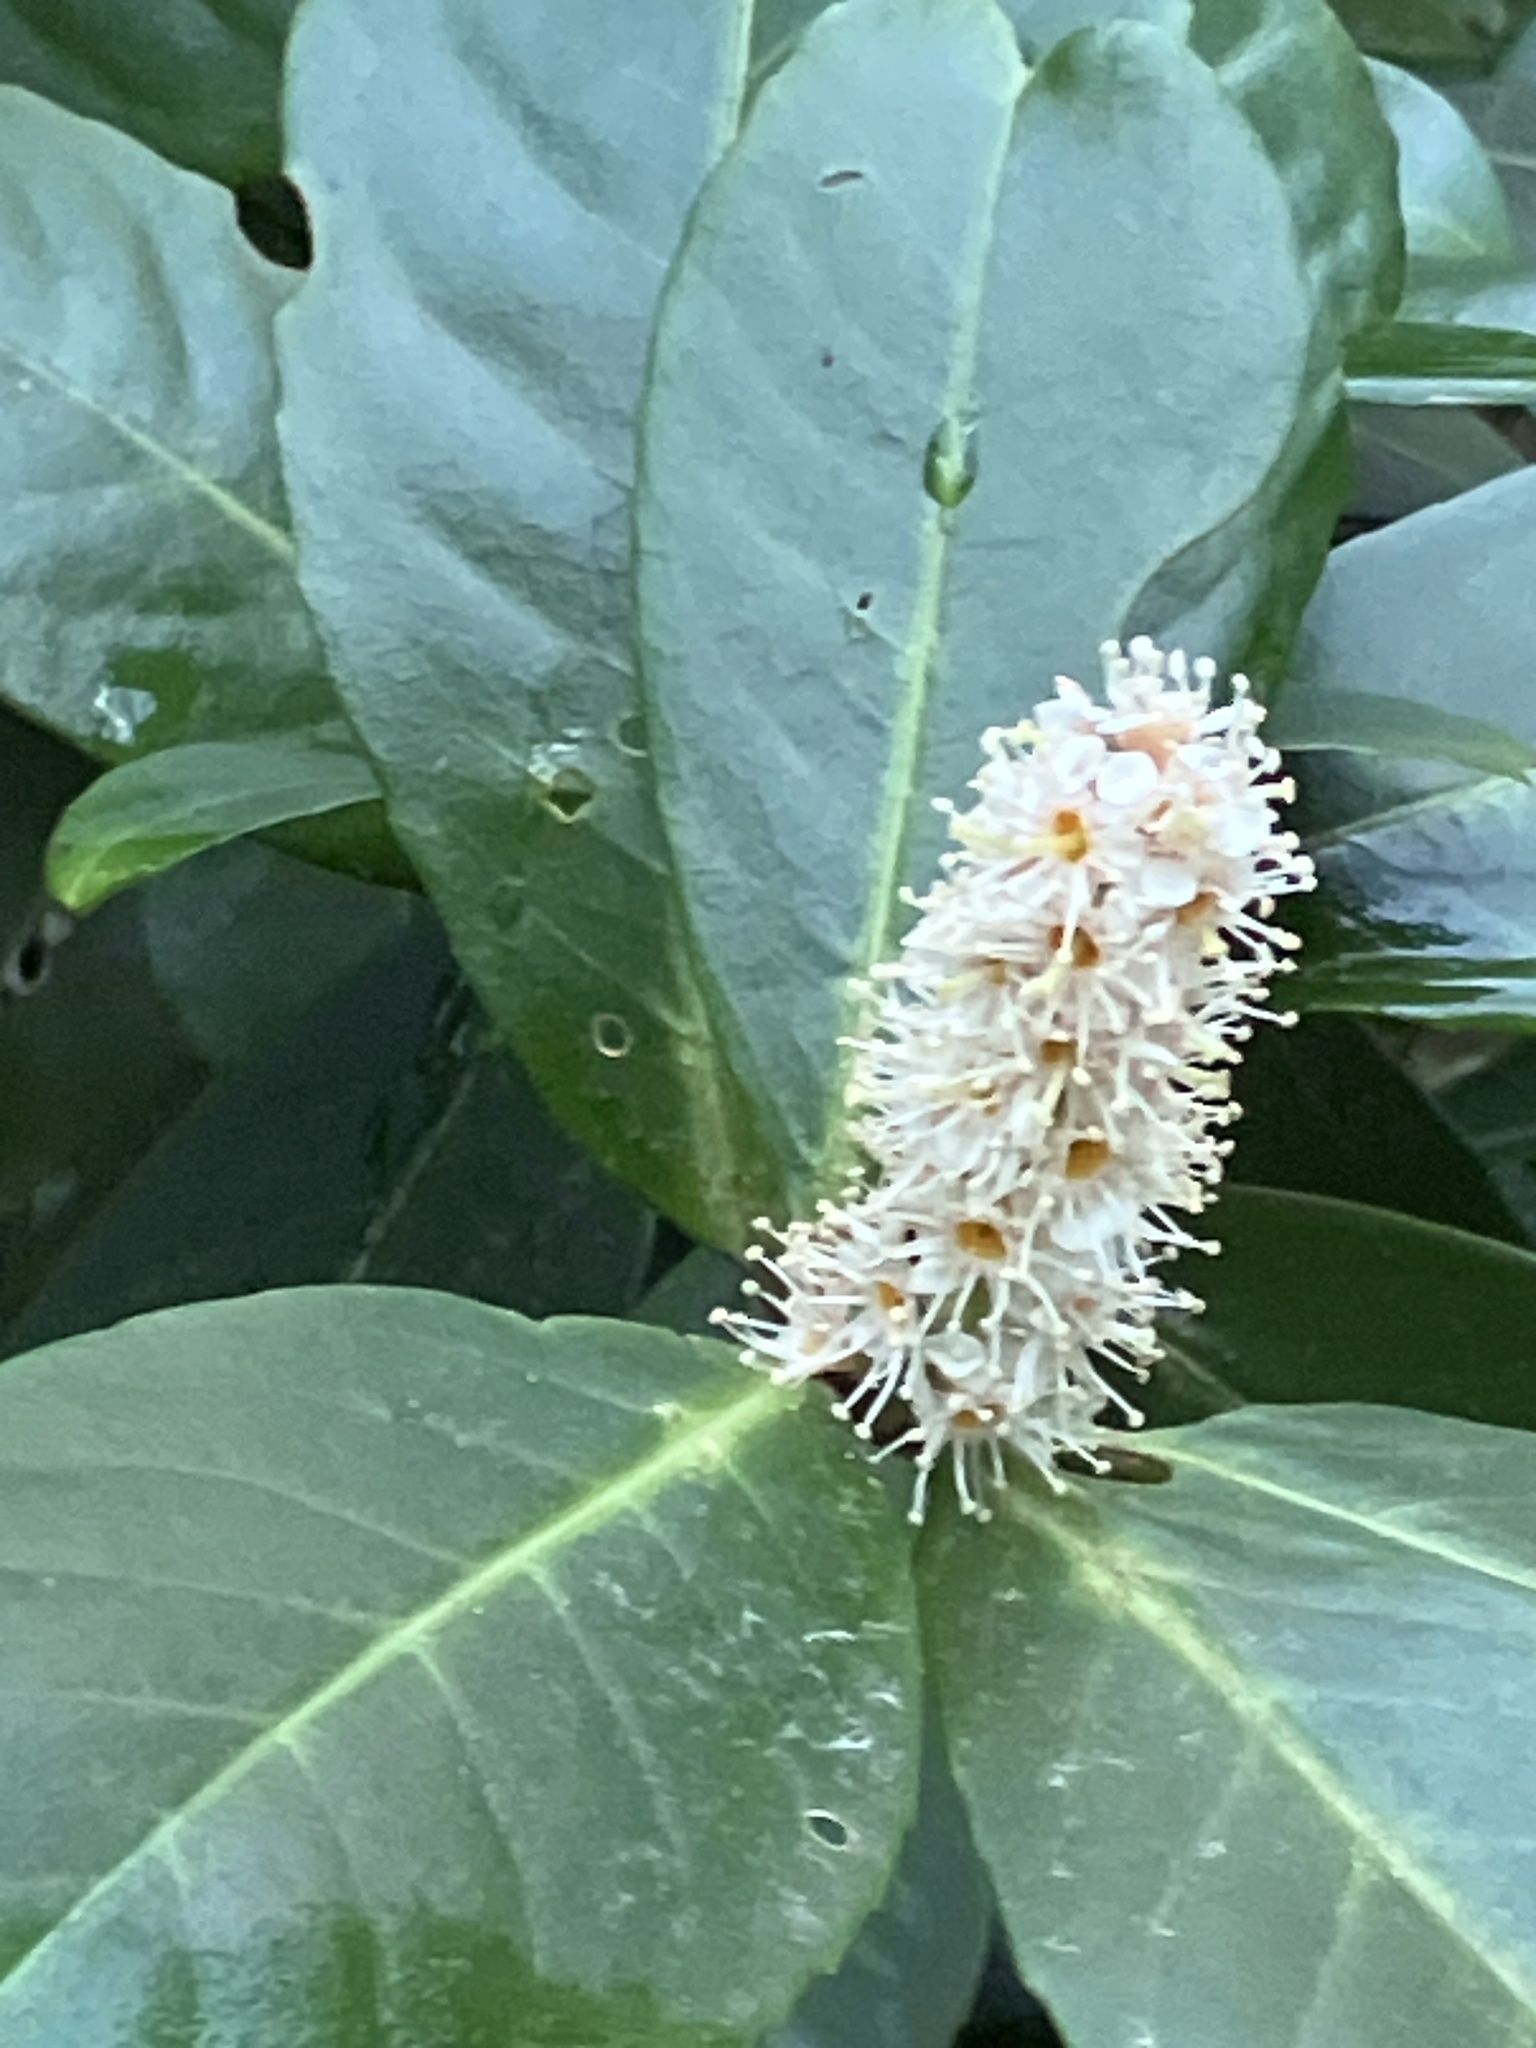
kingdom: Plantae
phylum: Tracheophyta
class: Magnoliopsida
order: Rosales
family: Rosaceae
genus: Prunus
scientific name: Prunus laurocerasus
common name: Cherry laurel
